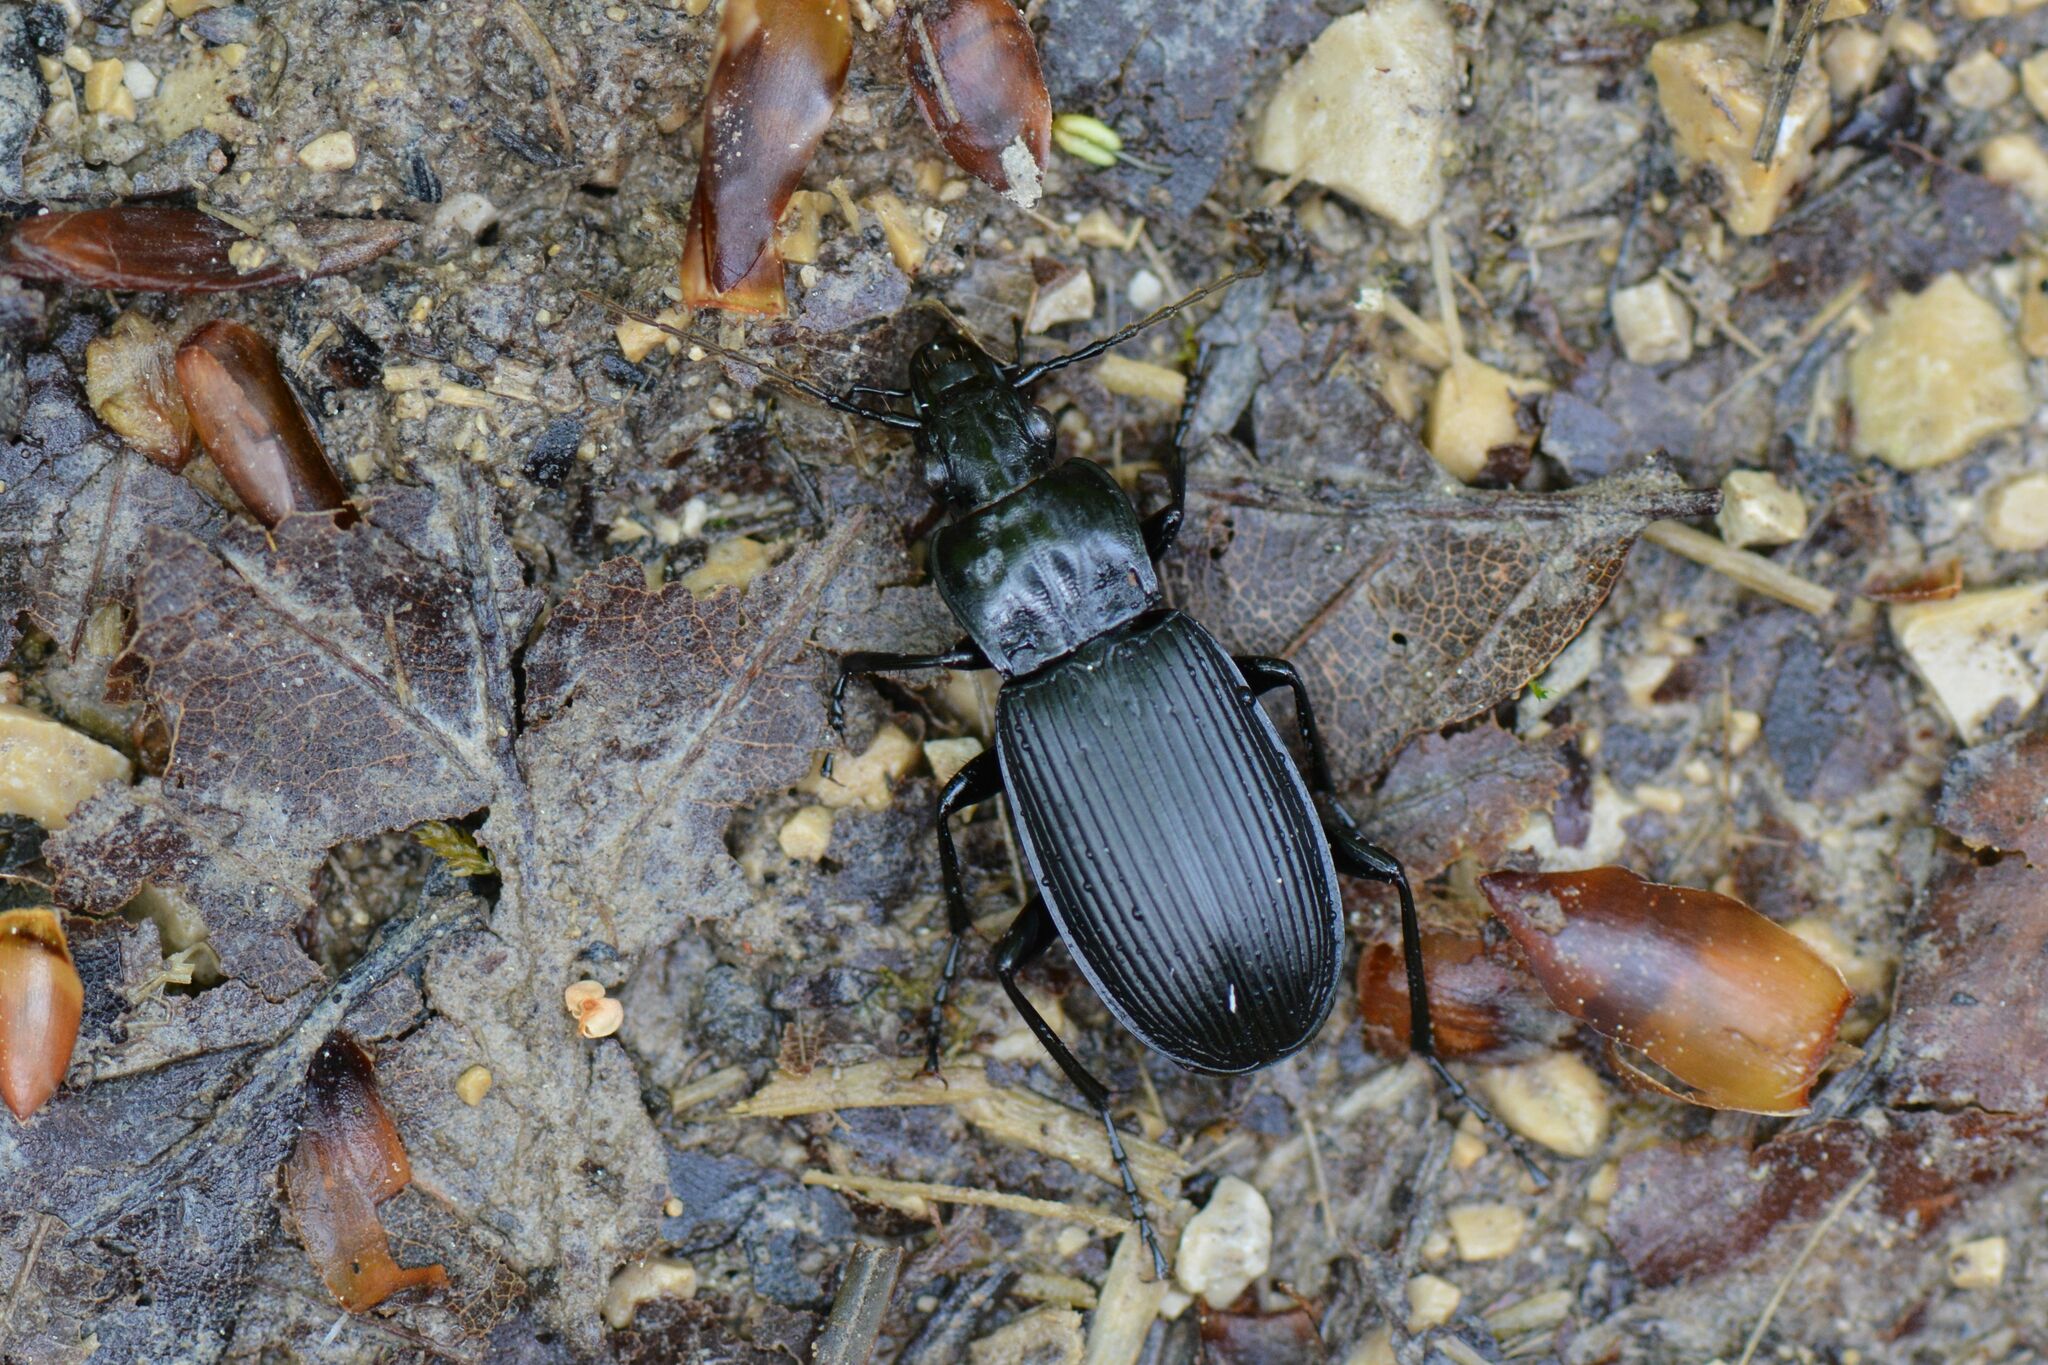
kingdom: Animalia
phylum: Arthropoda
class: Insecta
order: Coleoptera
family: Carabidae
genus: Pterostichus
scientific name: Pterostichus niger
